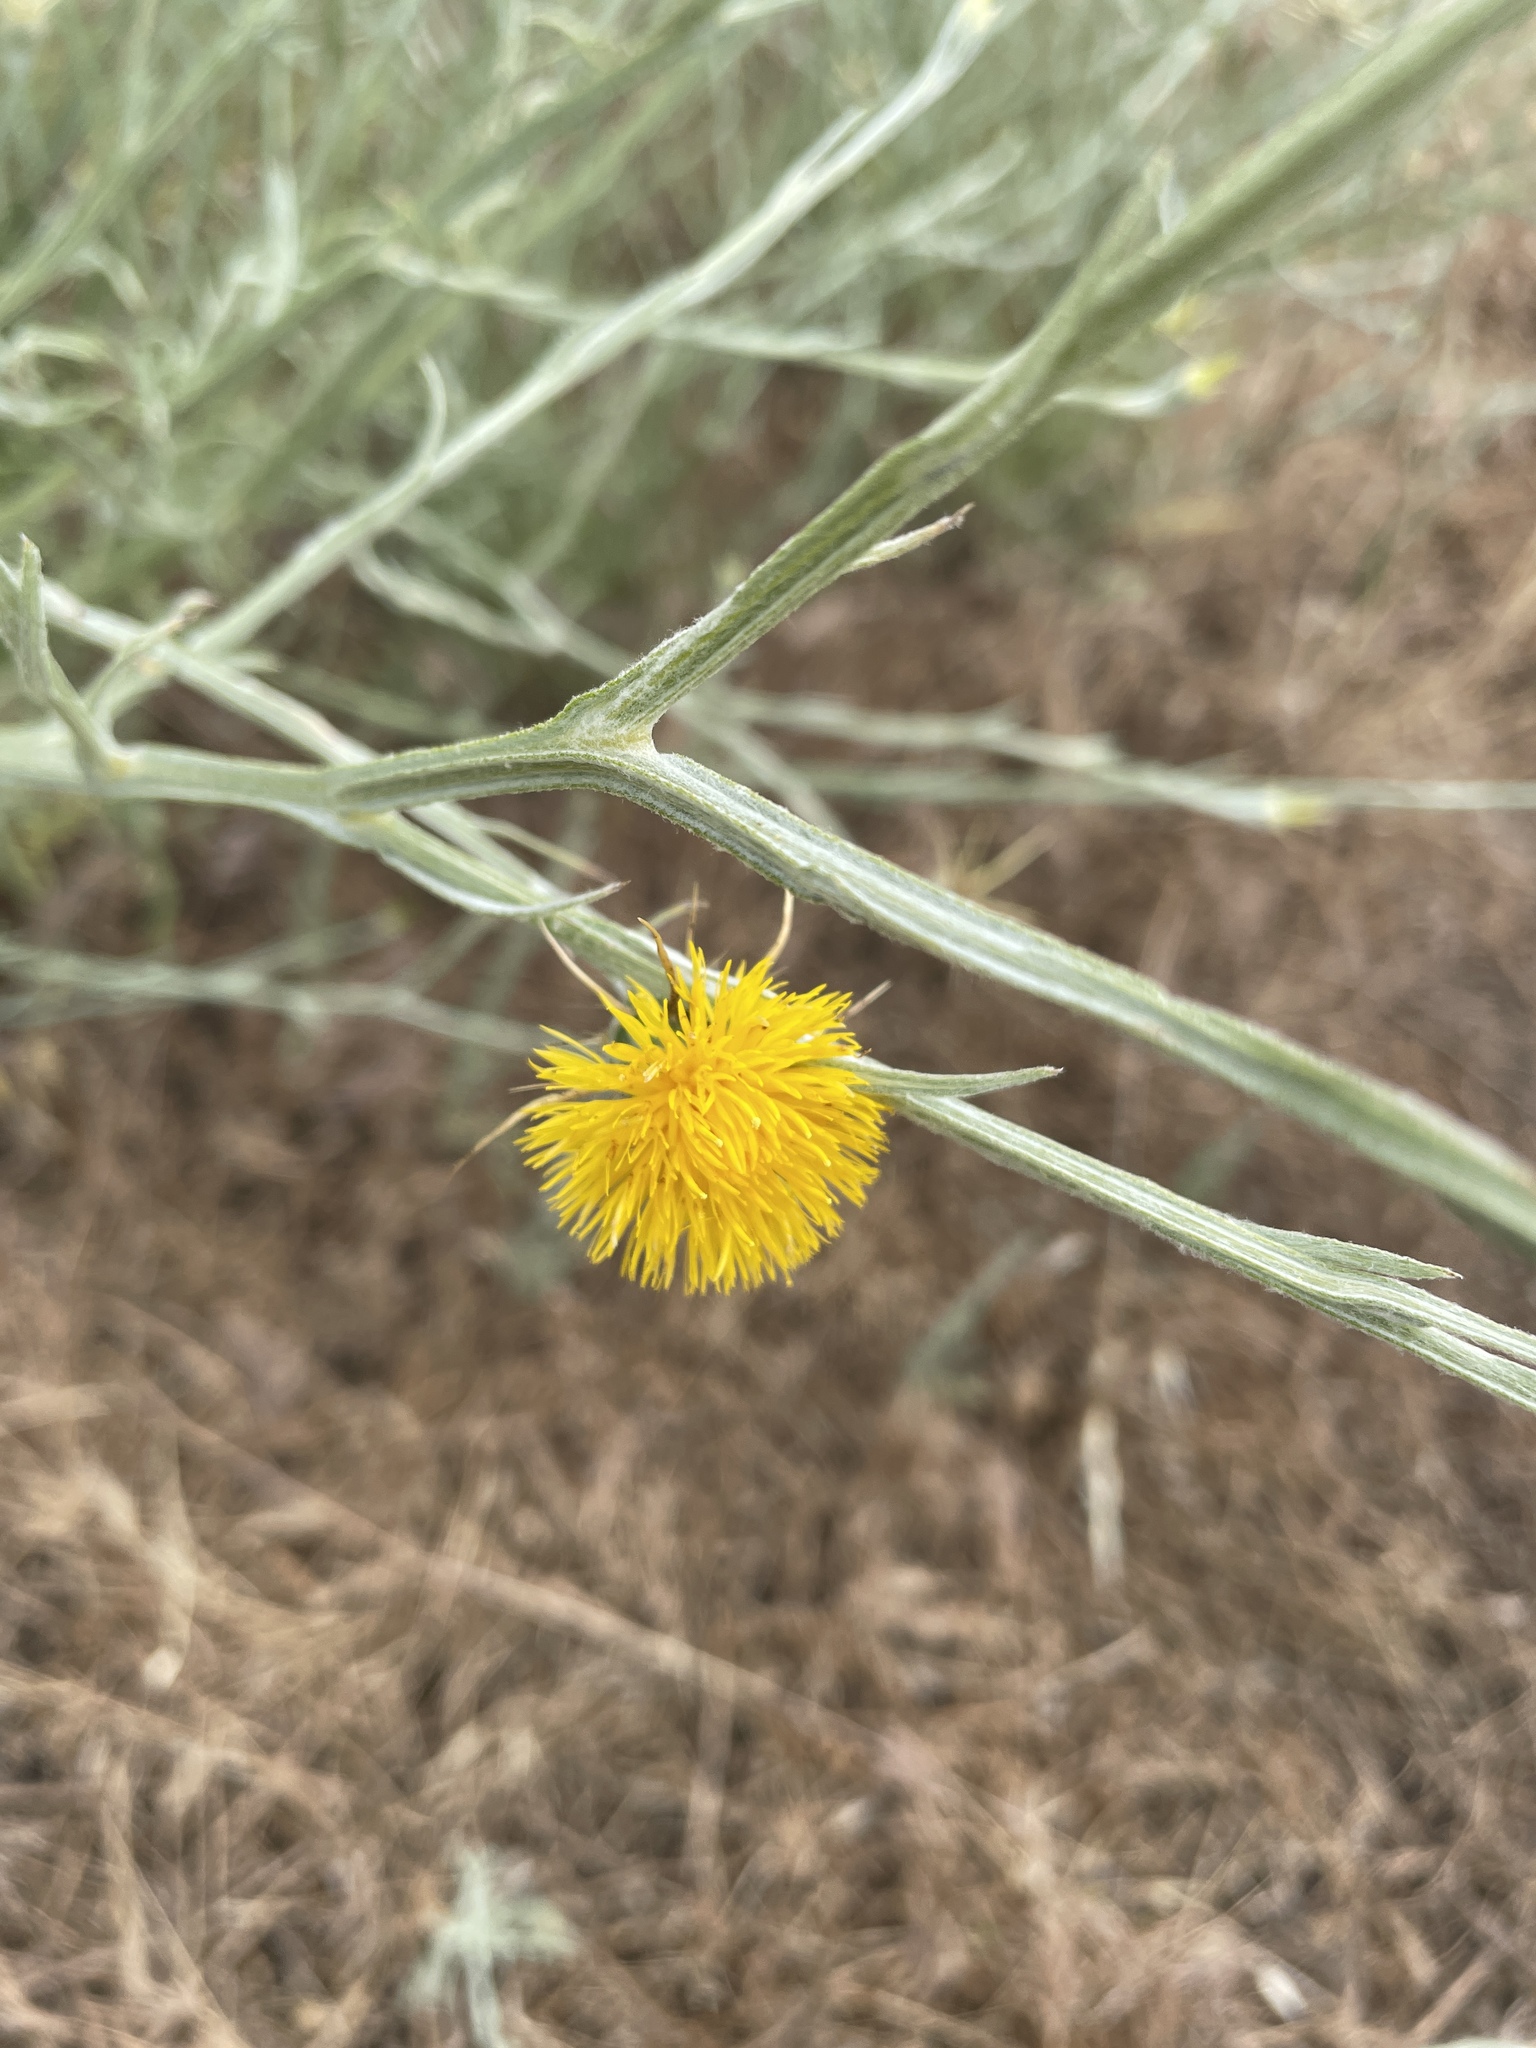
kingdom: Plantae
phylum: Tracheophyta
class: Magnoliopsida
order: Asterales
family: Asteraceae
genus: Centaurea
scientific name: Centaurea solstitialis
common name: Yellow star-thistle
